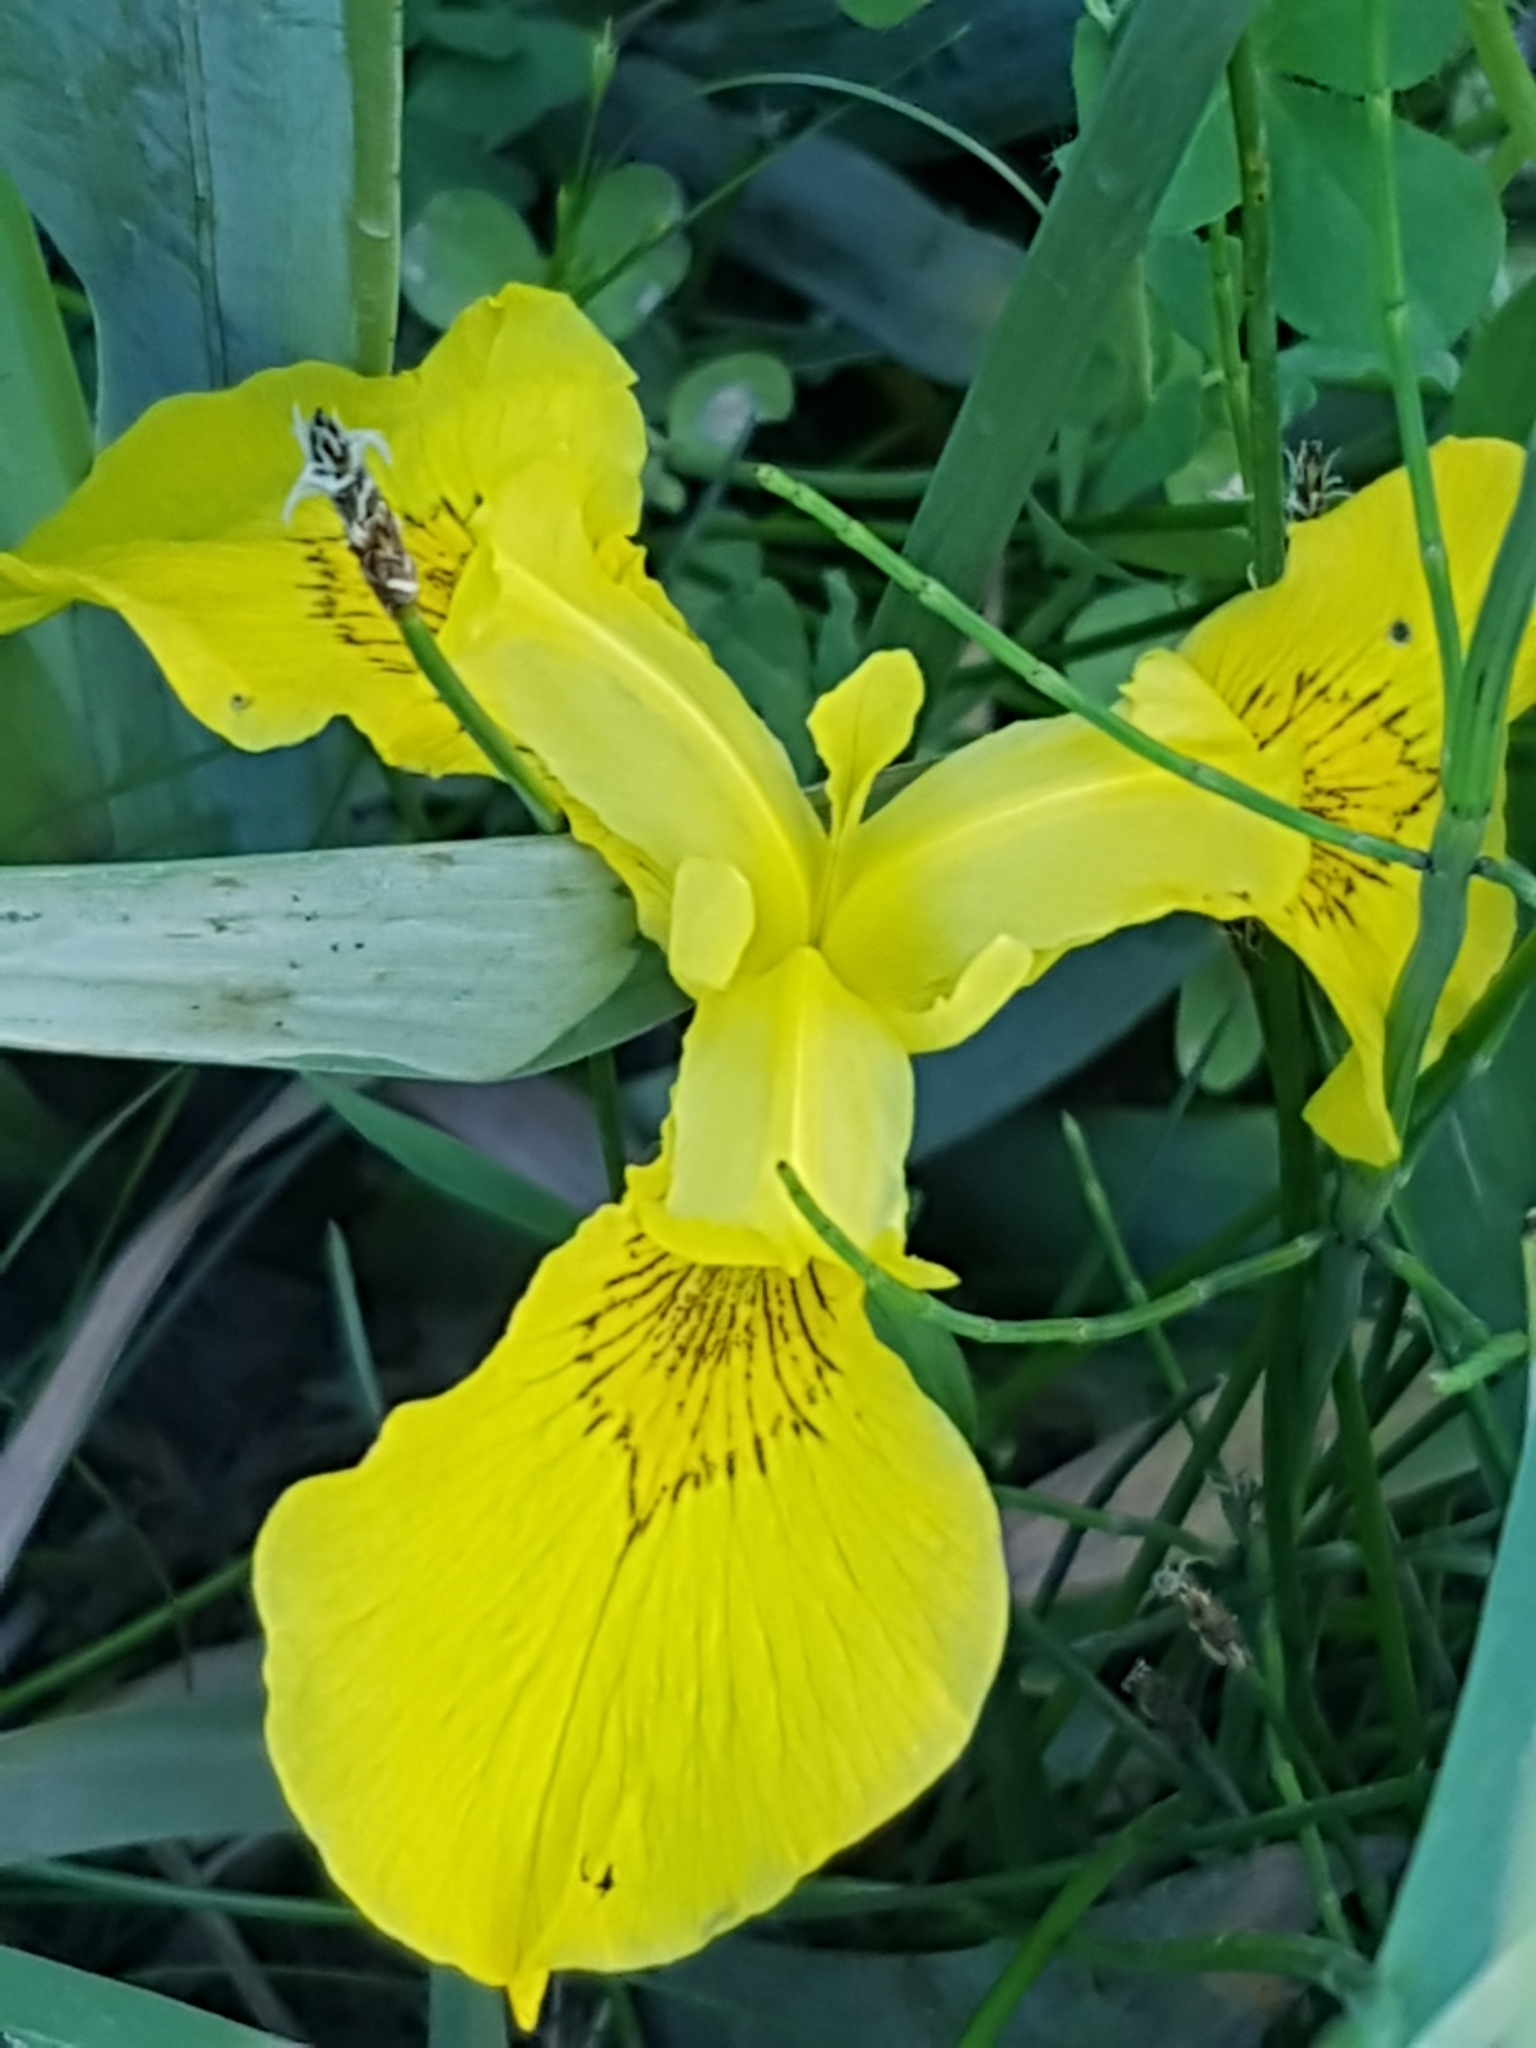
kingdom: Plantae
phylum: Tracheophyta
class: Liliopsida
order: Asparagales
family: Iridaceae
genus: Iris
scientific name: Iris pseudacorus
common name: Yellow flag
